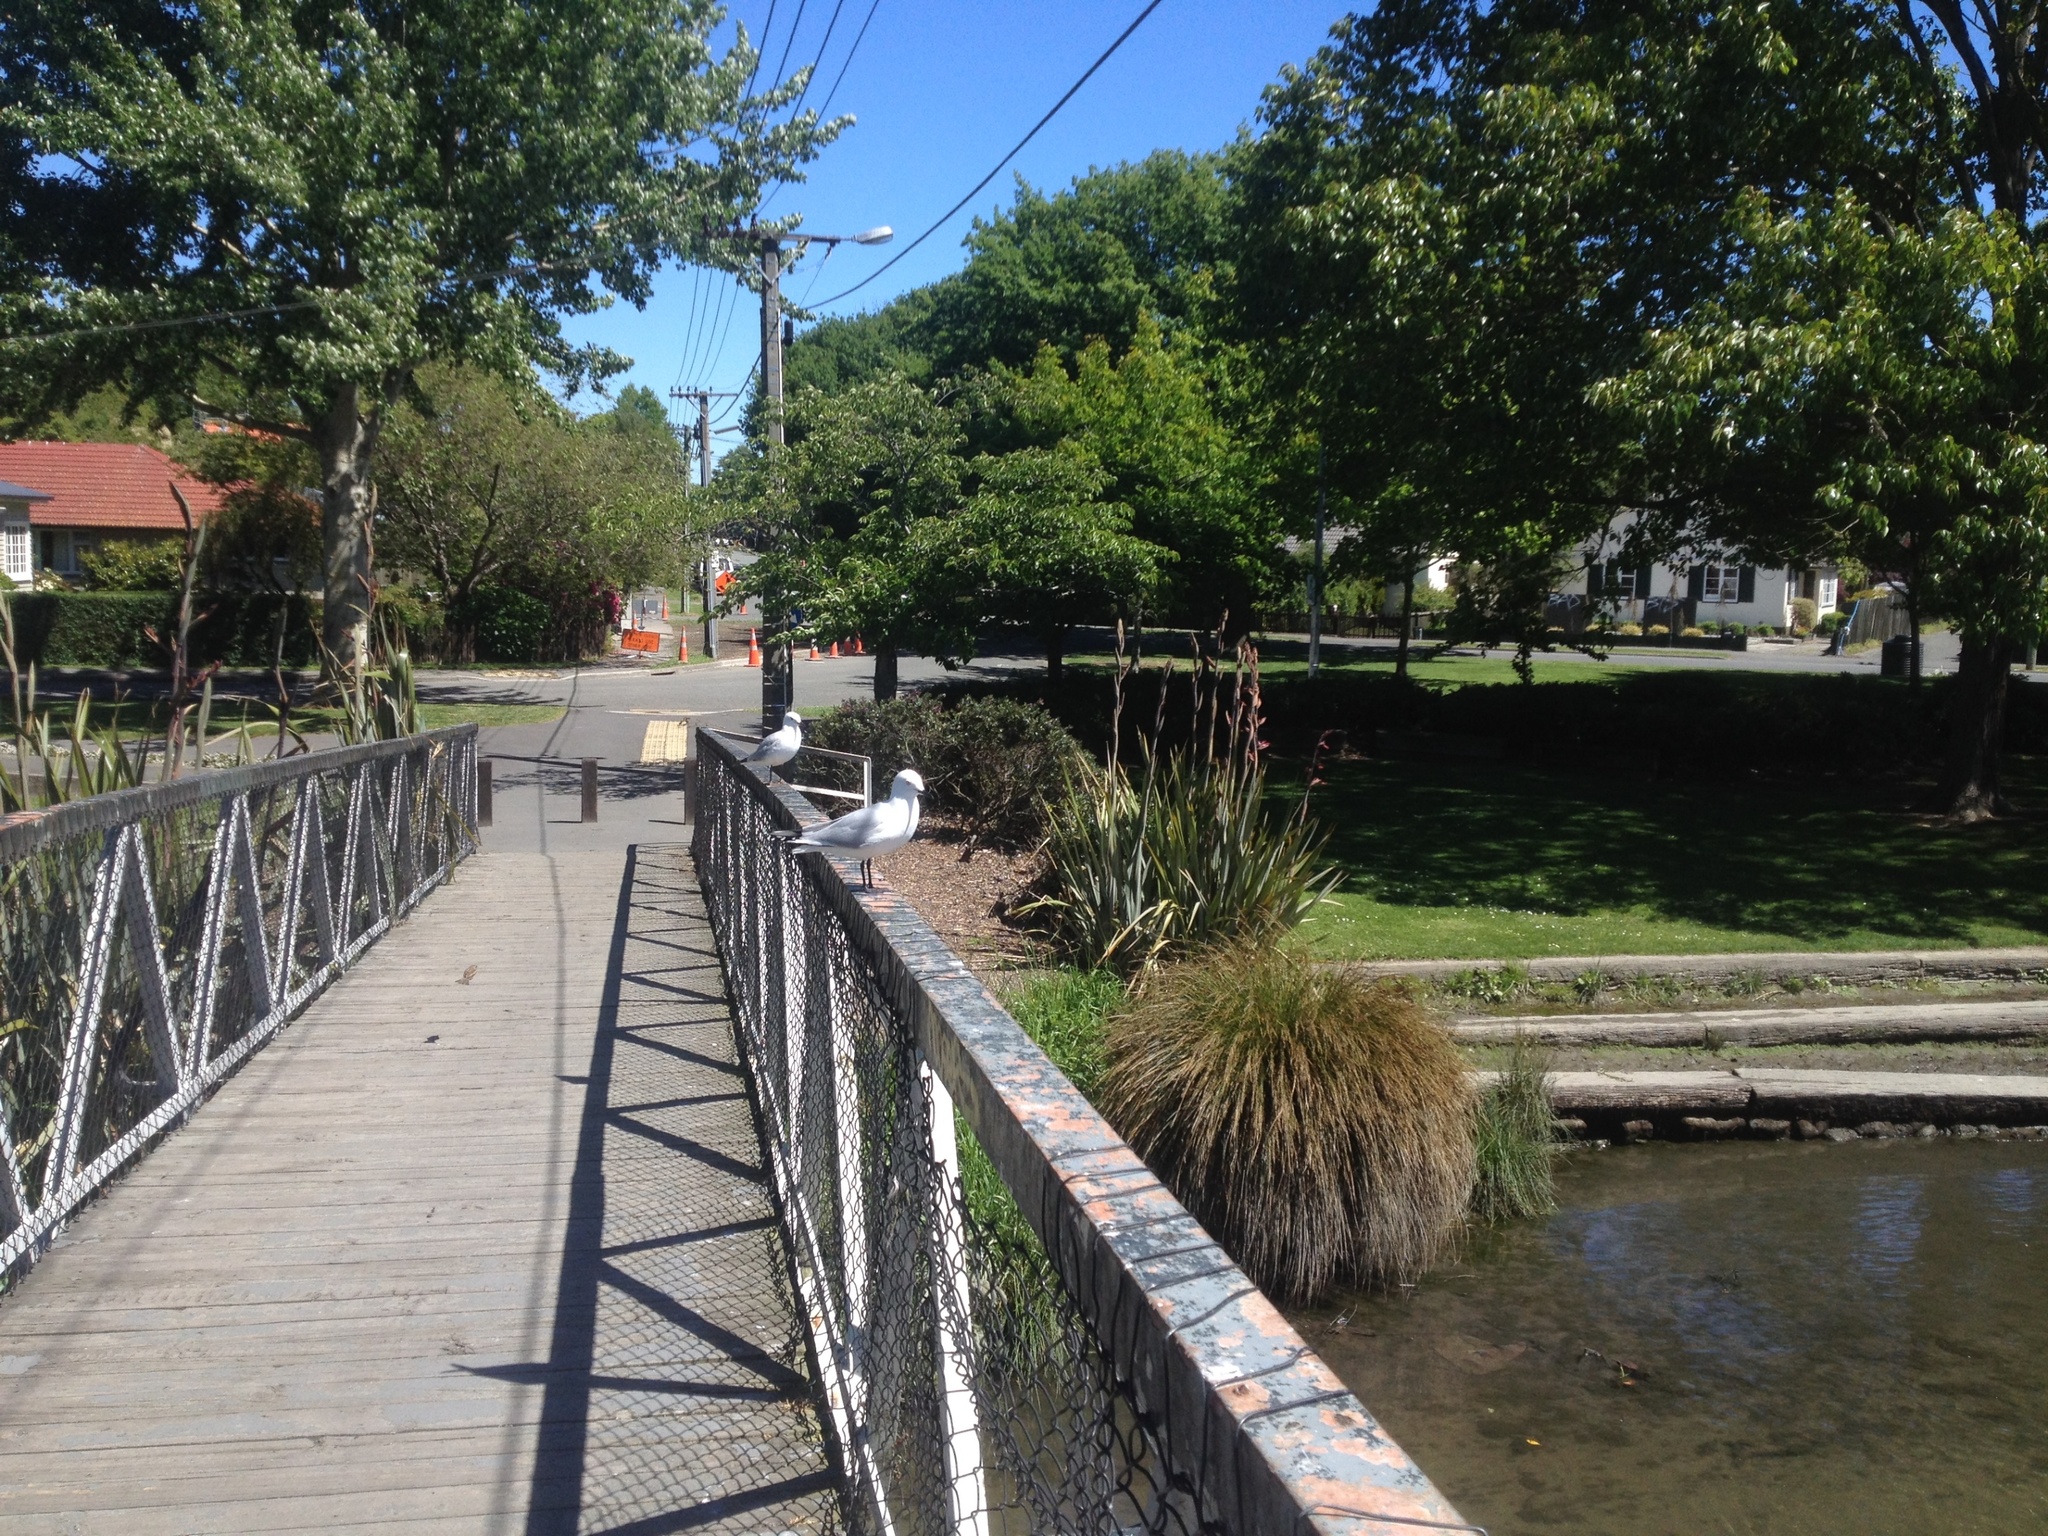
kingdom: Animalia
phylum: Chordata
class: Aves
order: Charadriiformes
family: Laridae
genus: Chroicocephalus
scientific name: Chroicocephalus bulleri
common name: Black-billed gull
